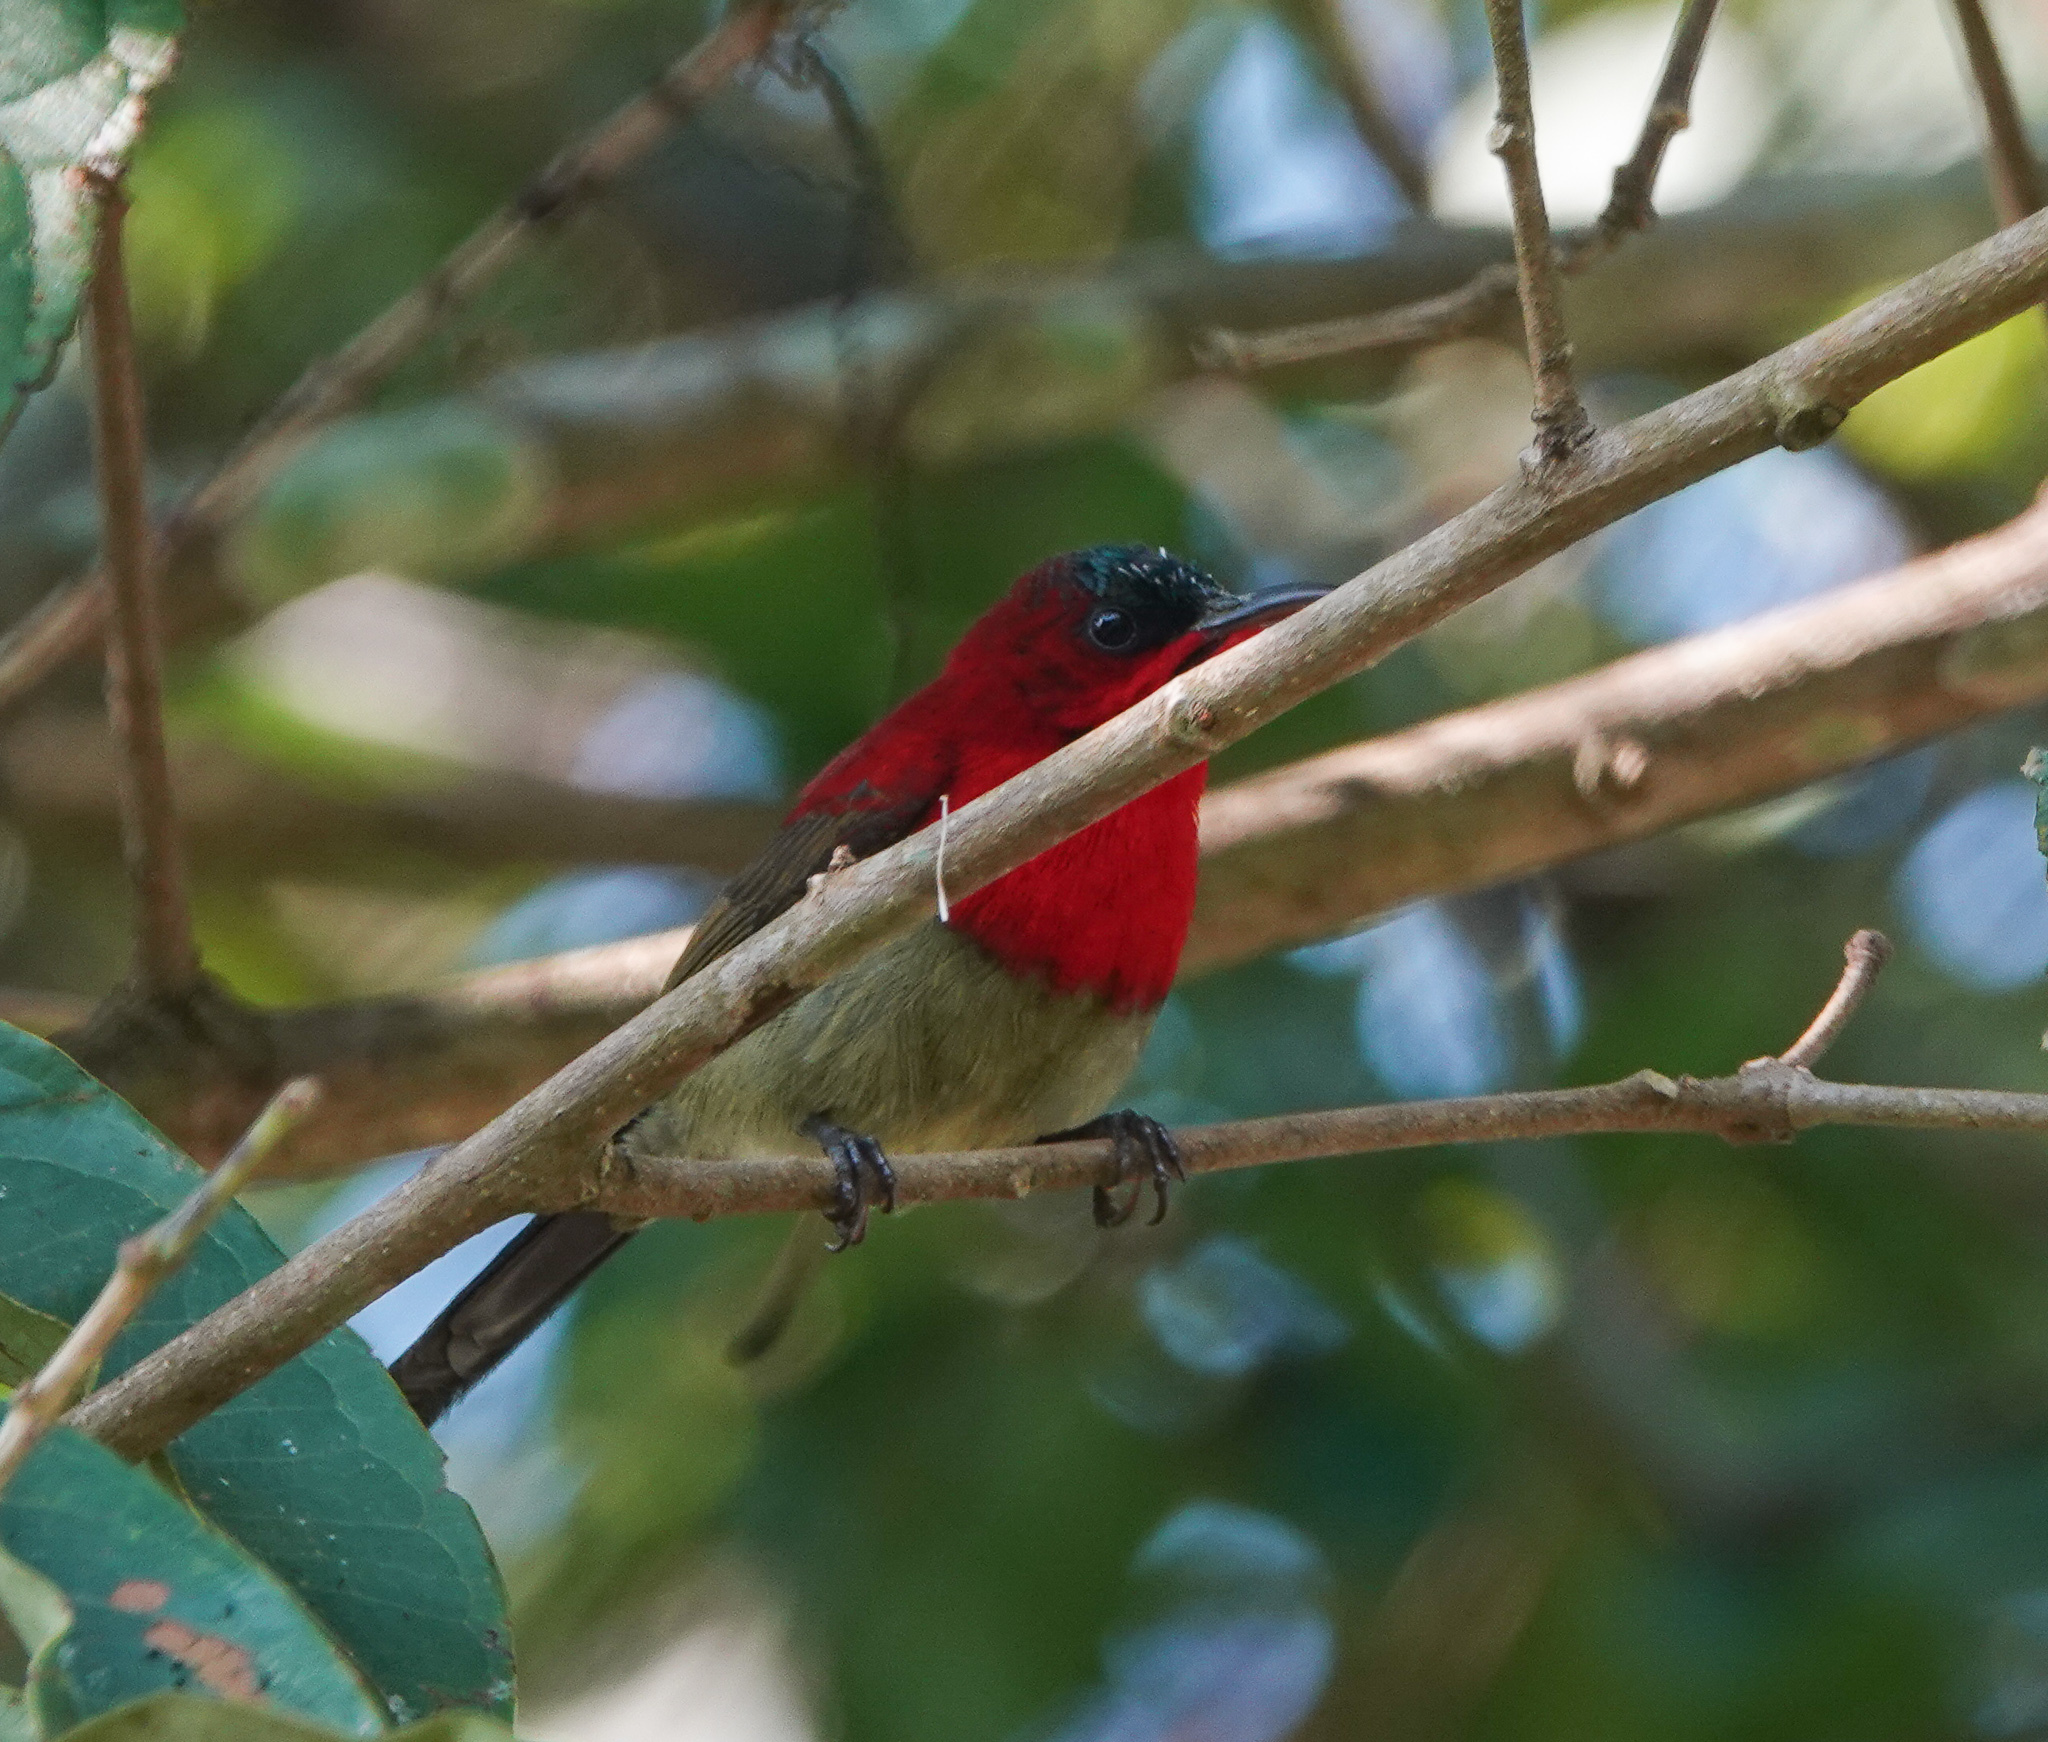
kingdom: Animalia
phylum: Chordata
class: Aves
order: Passeriformes
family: Nectariniidae
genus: Aethopyga
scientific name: Aethopyga siparaja
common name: Crimson sunbird
